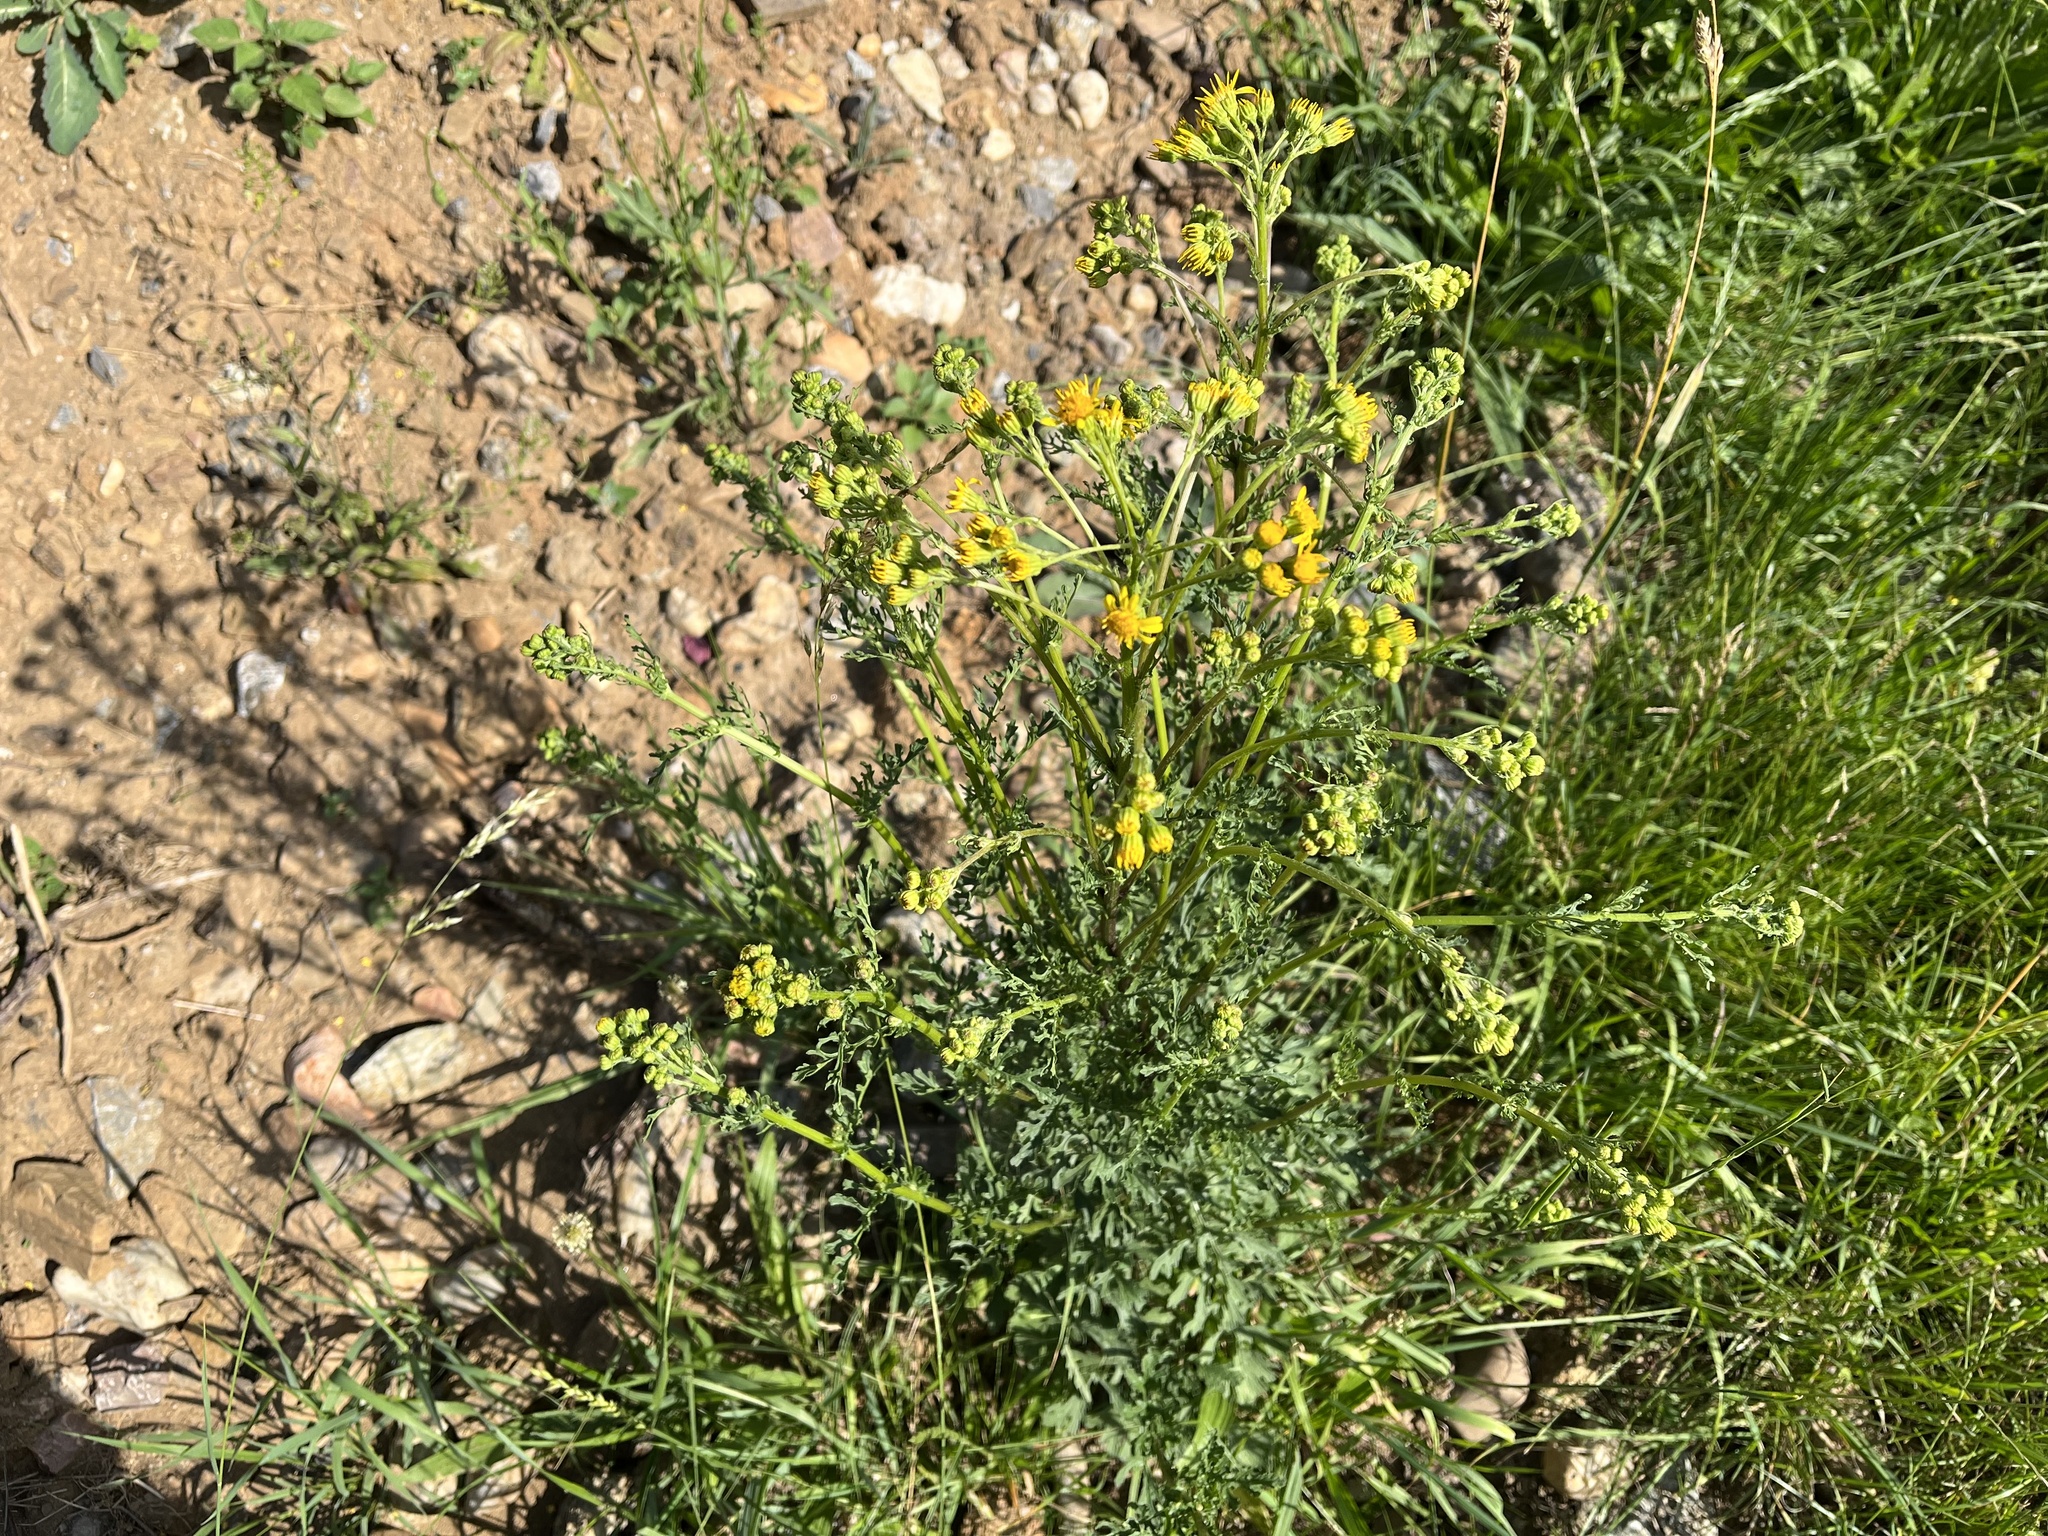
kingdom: Plantae
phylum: Tracheophyta
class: Magnoliopsida
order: Asterales
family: Asteraceae
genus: Jacobaea
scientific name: Jacobaea vulgaris
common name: Stinking willie
